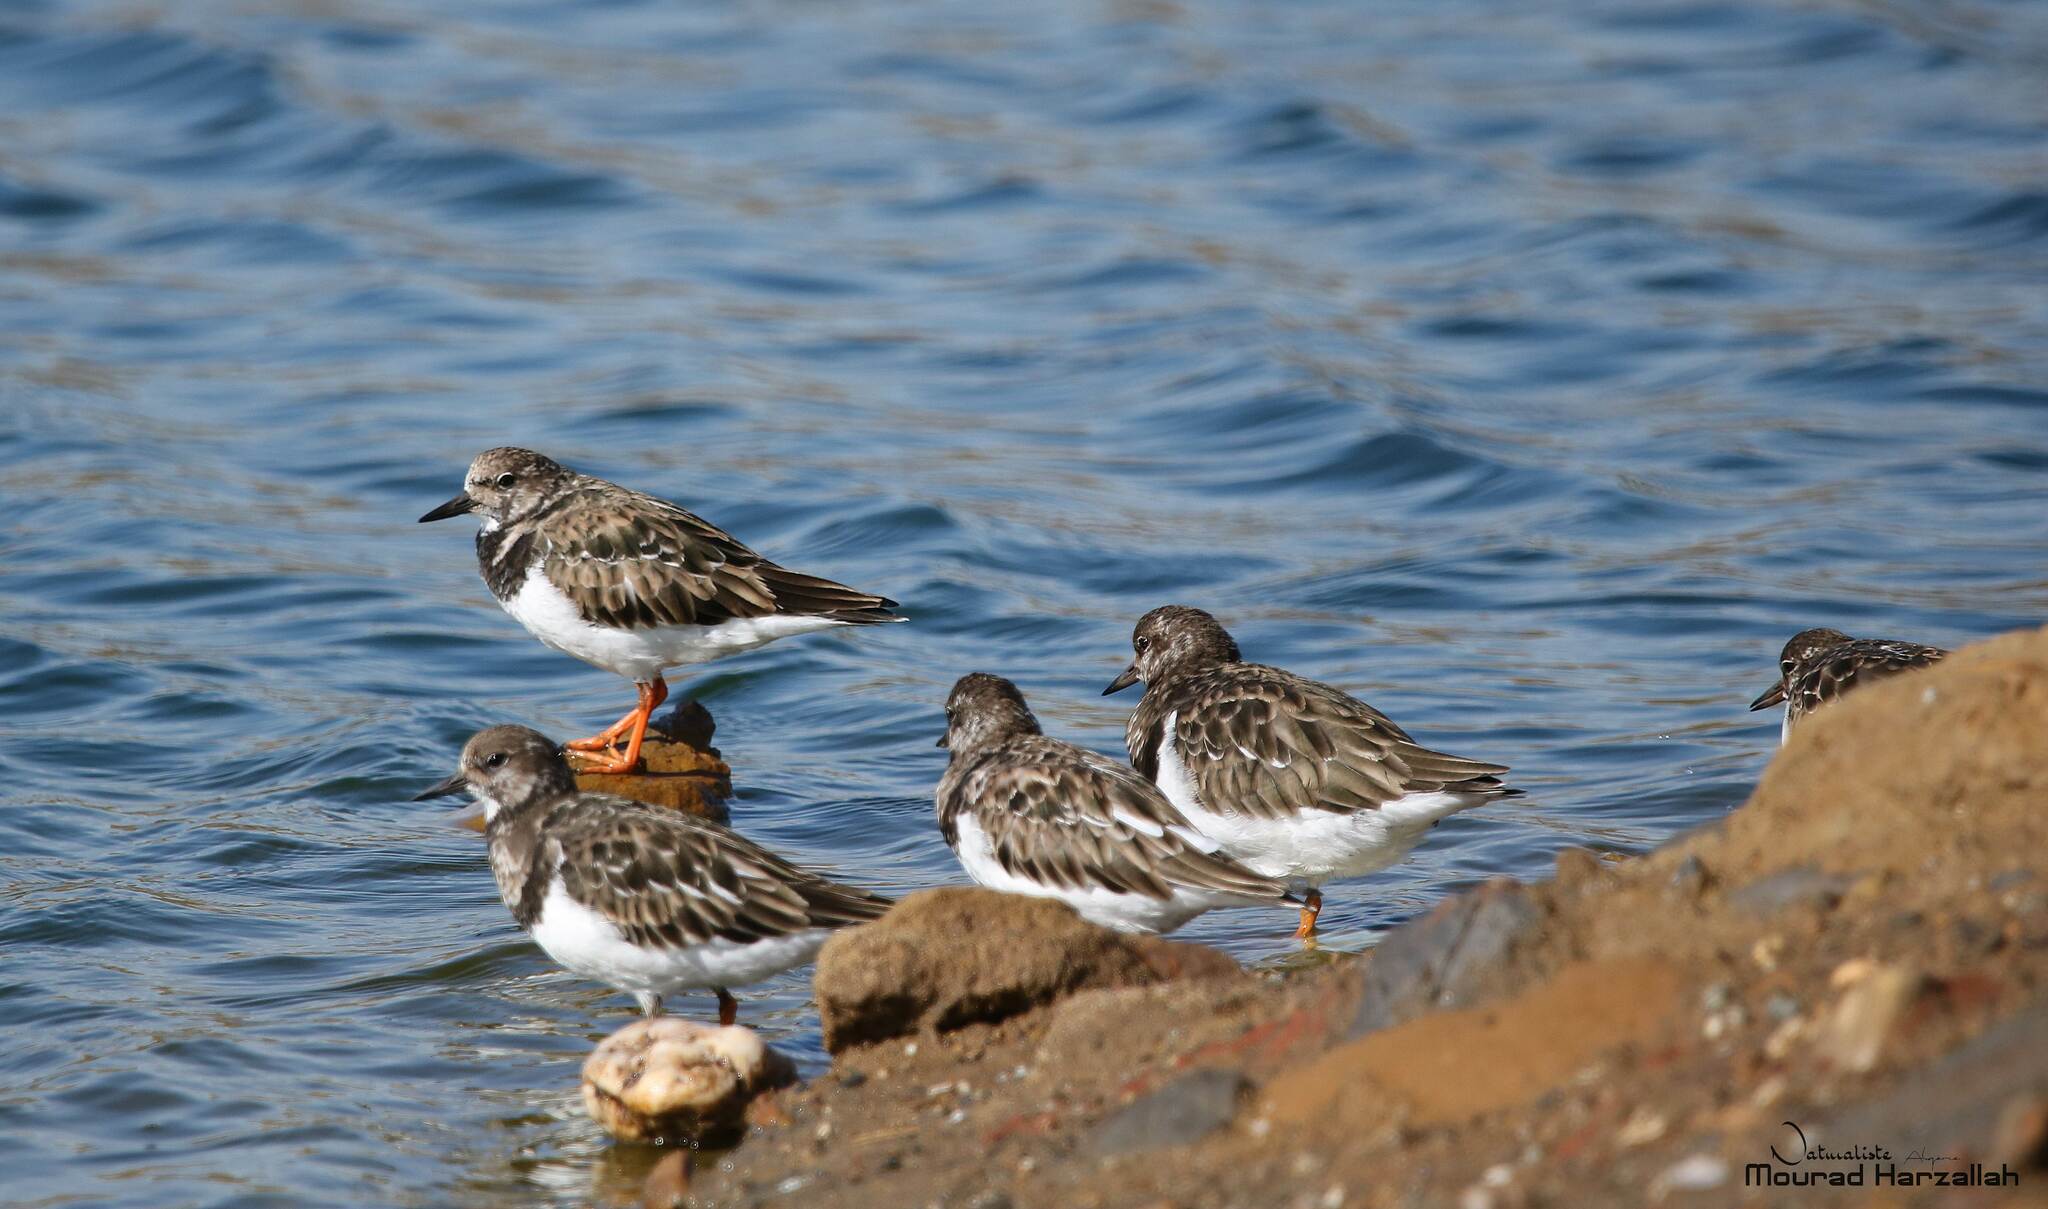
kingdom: Animalia
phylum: Chordata
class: Aves
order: Charadriiformes
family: Scolopacidae
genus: Arenaria
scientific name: Arenaria interpres
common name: Ruddy turnstone
